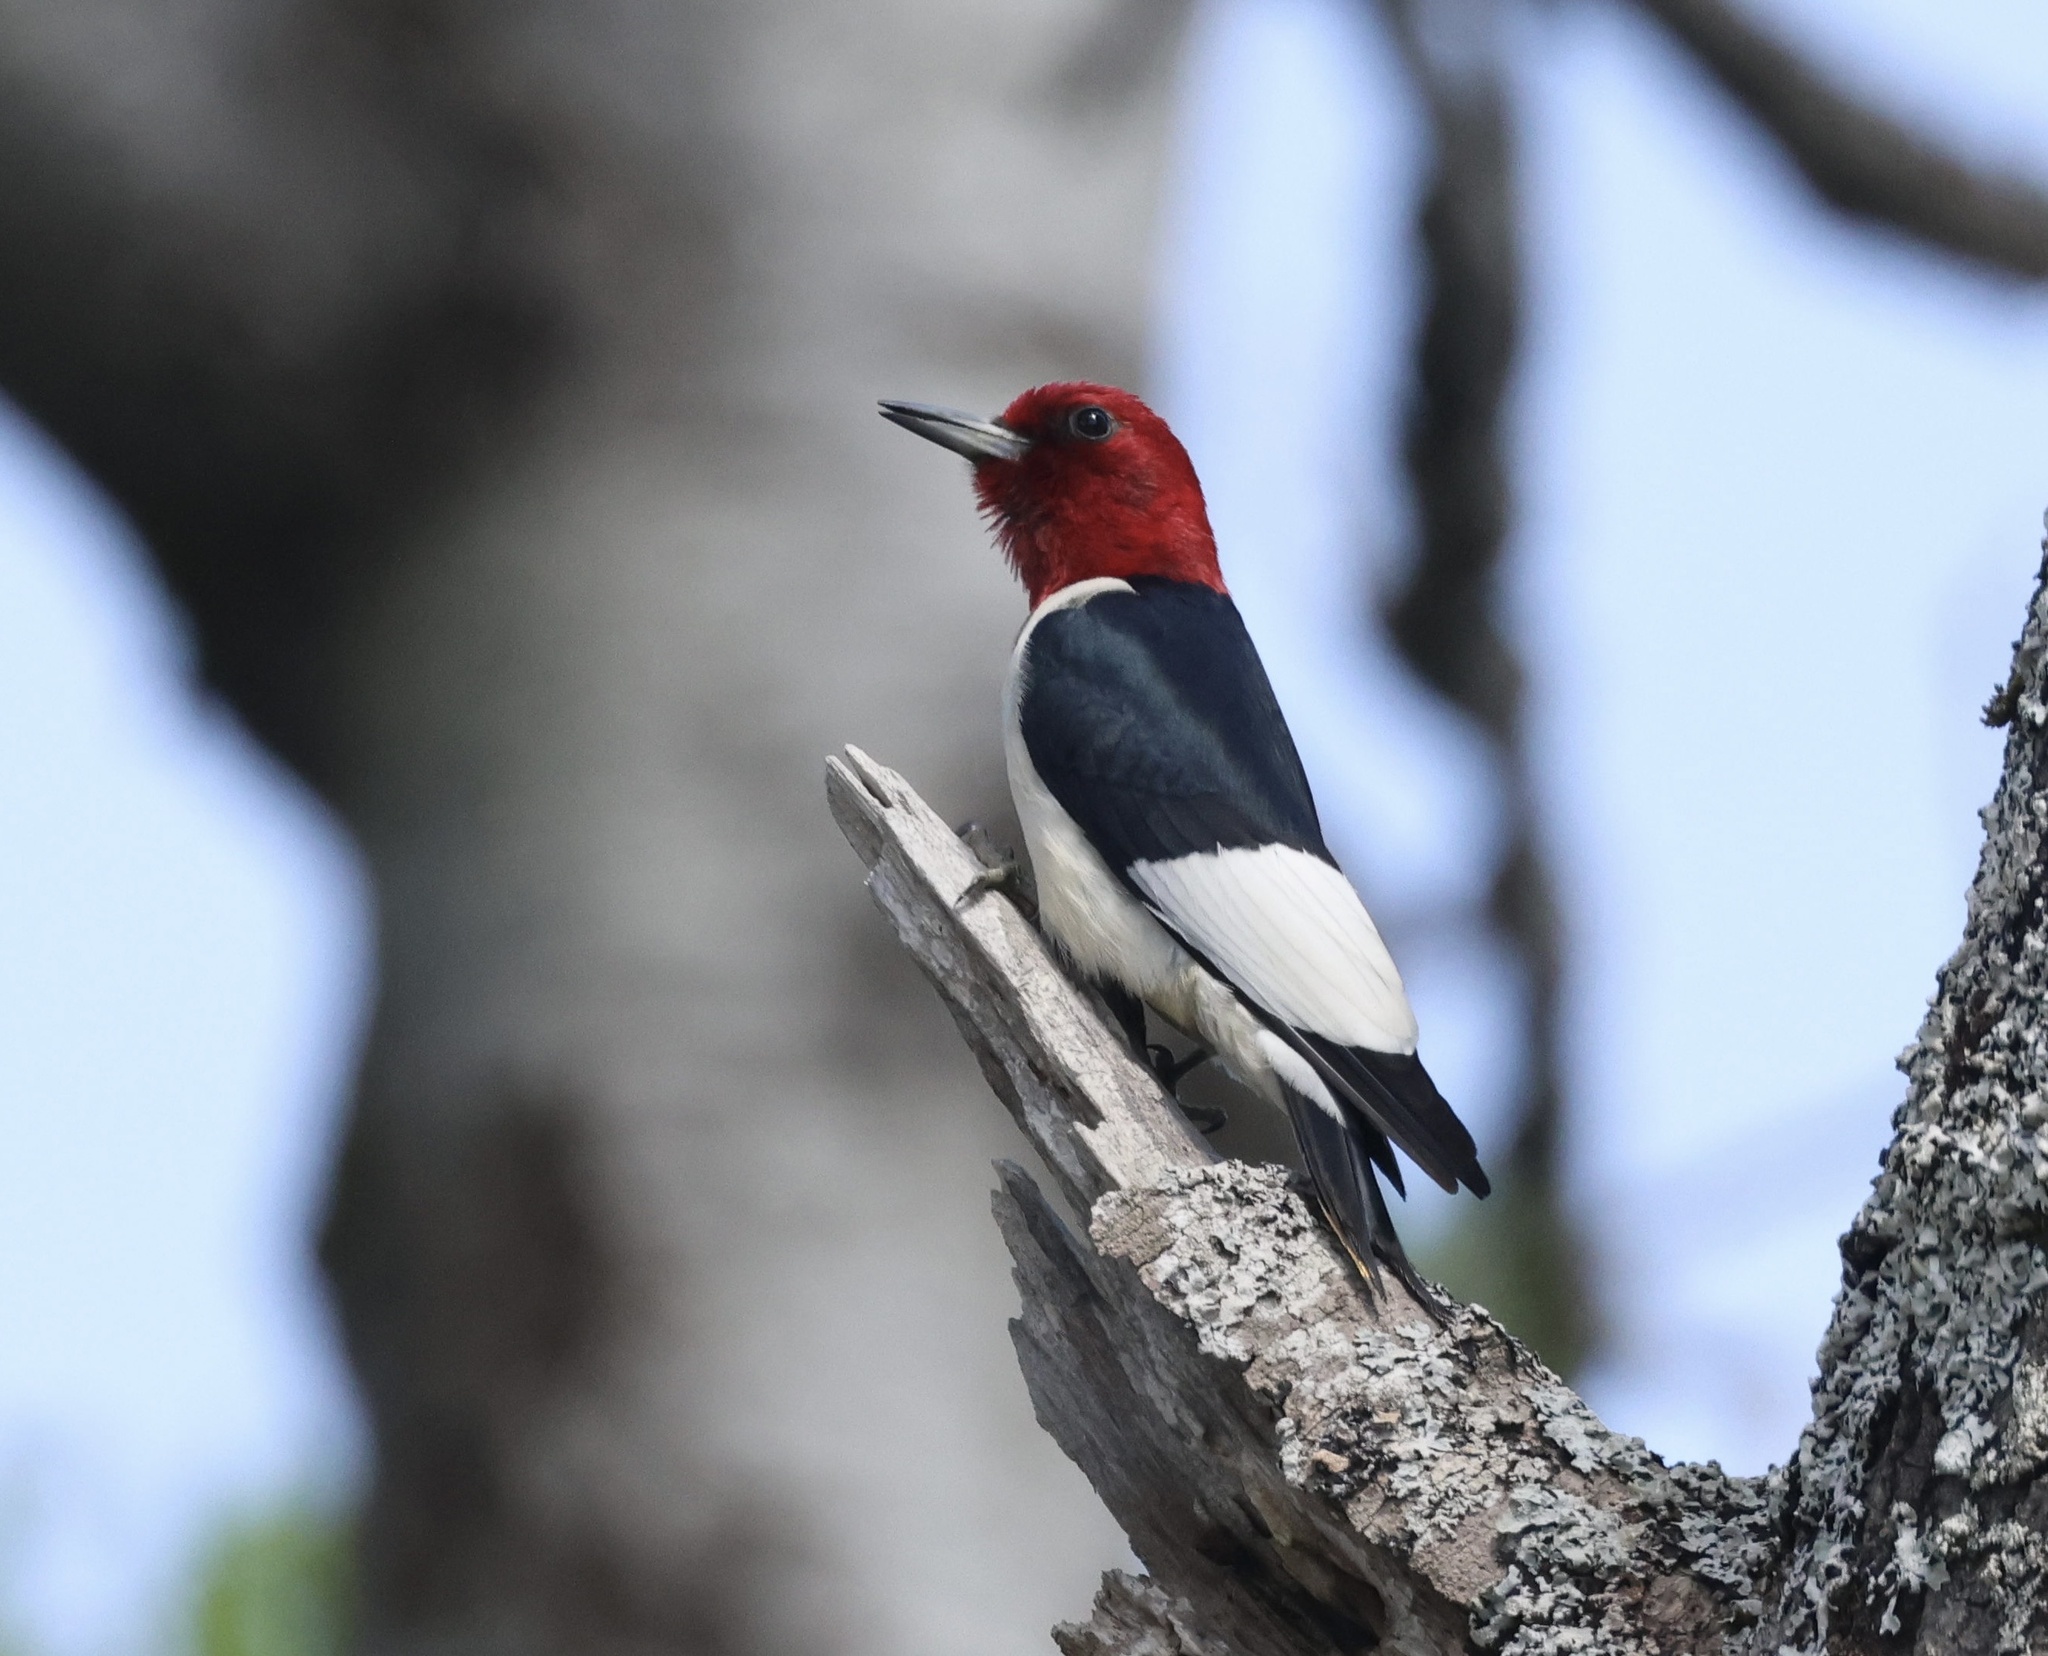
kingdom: Animalia
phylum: Chordata
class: Aves
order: Piciformes
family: Picidae
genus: Melanerpes
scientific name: Melanerpes erythrocephalus
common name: Red-headed woodpecker
